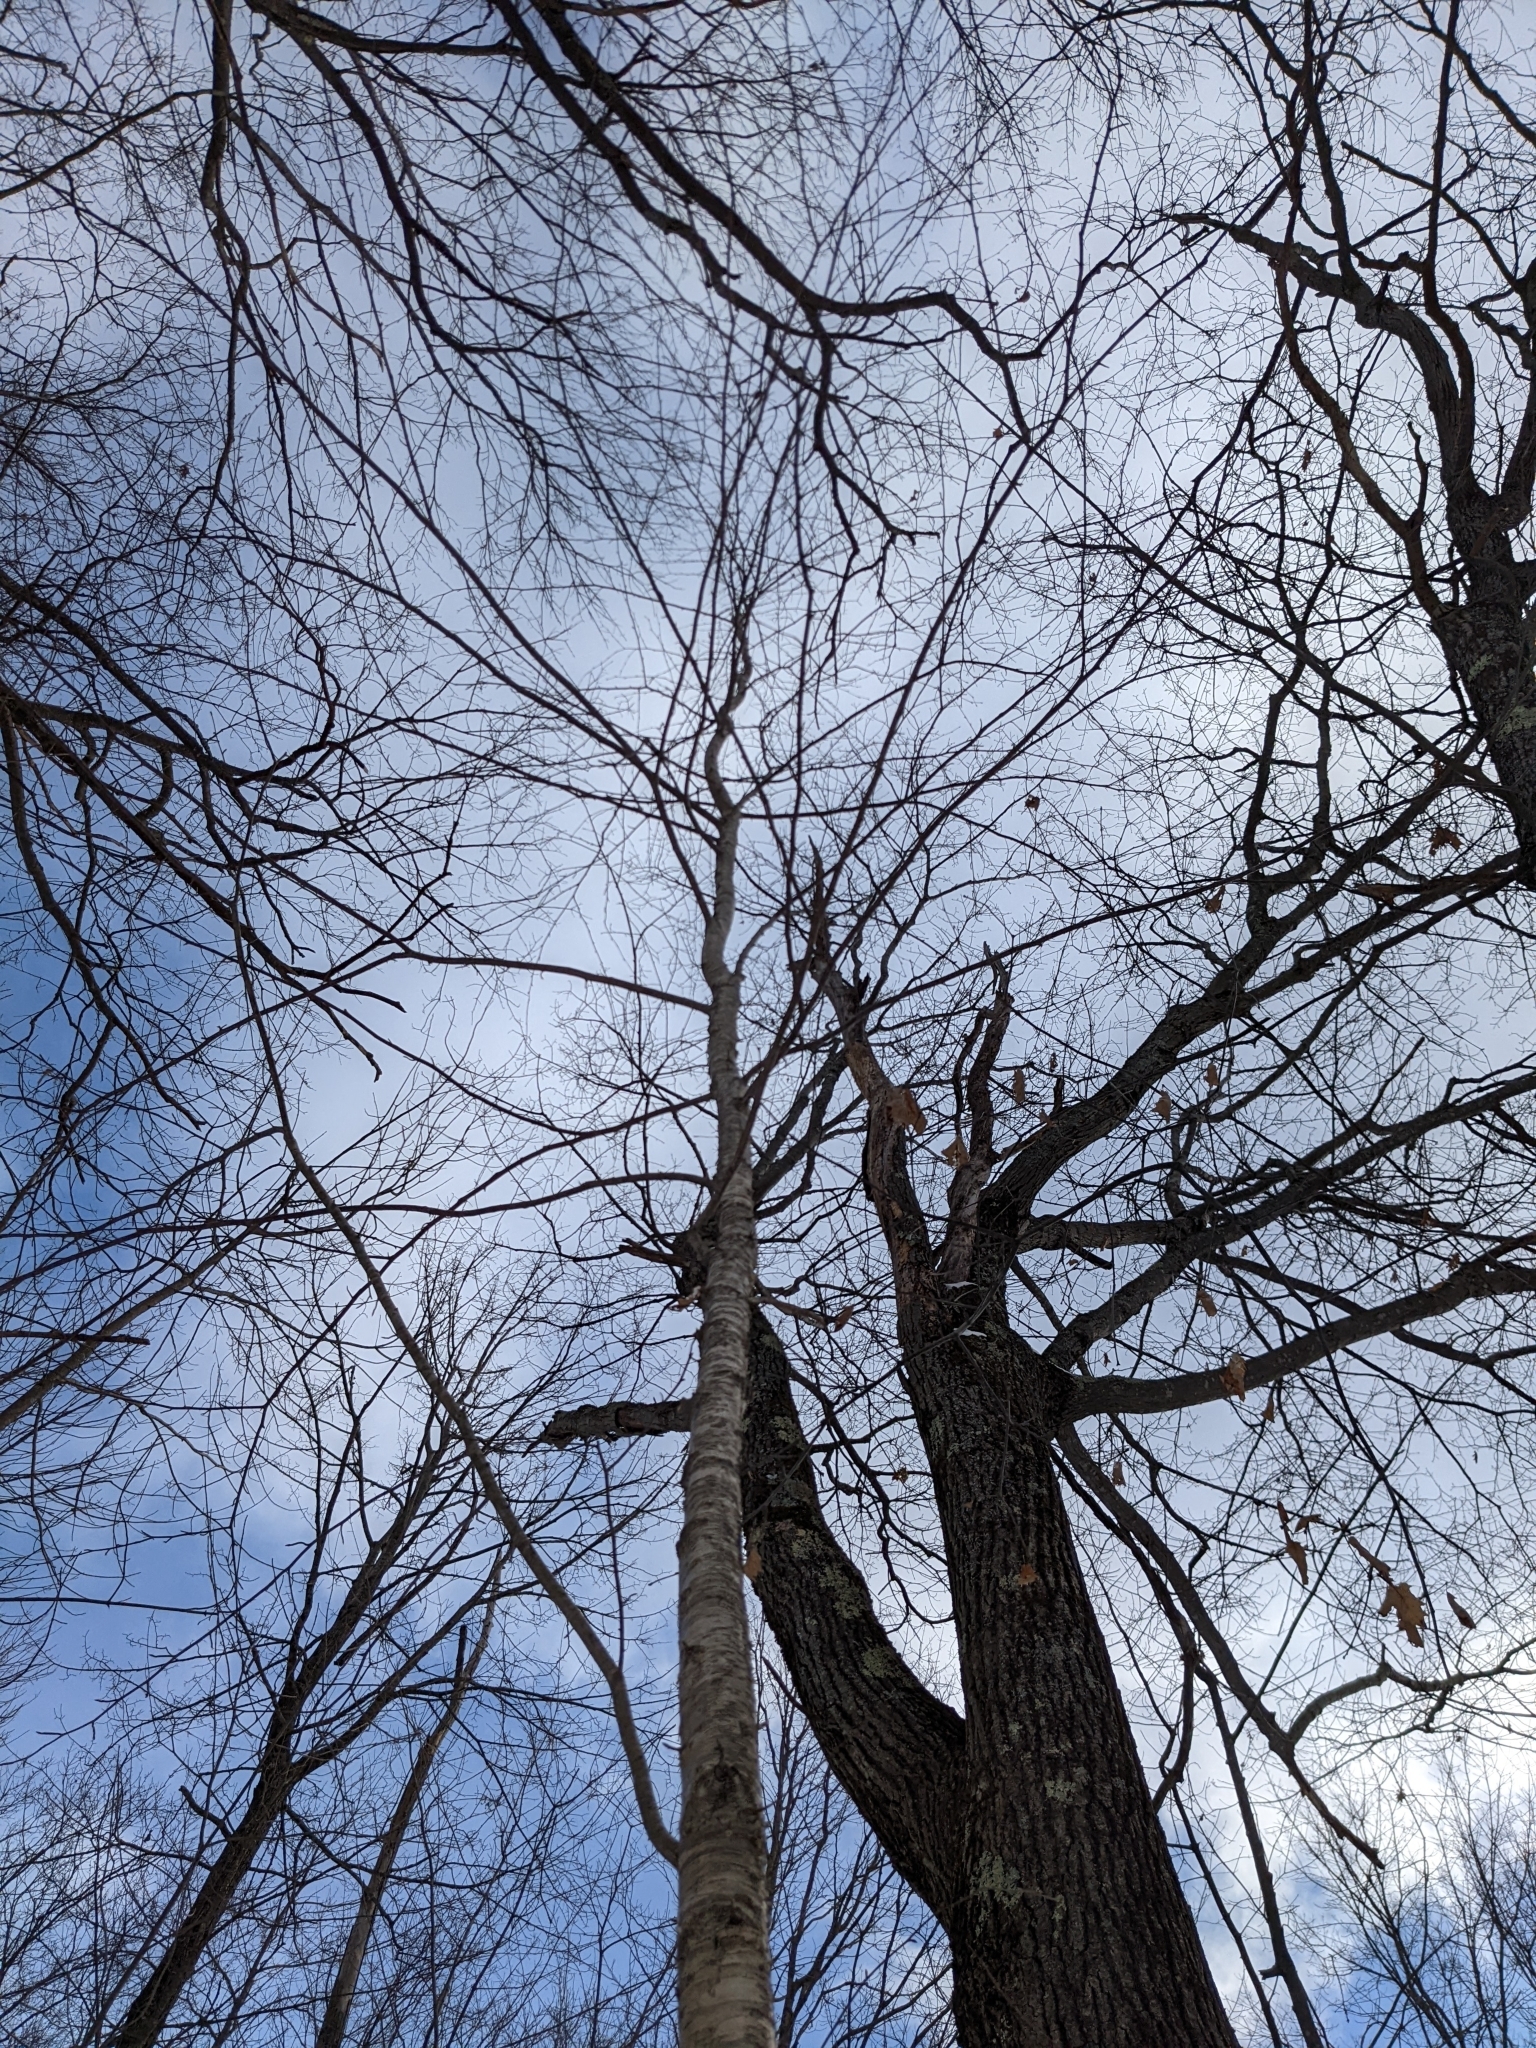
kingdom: Plantae
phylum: Tracheophyta
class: Magnoliopsida
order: Fagales
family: Betulaceae
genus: Betula
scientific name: Betula alleghaniensis
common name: Yellow birch
